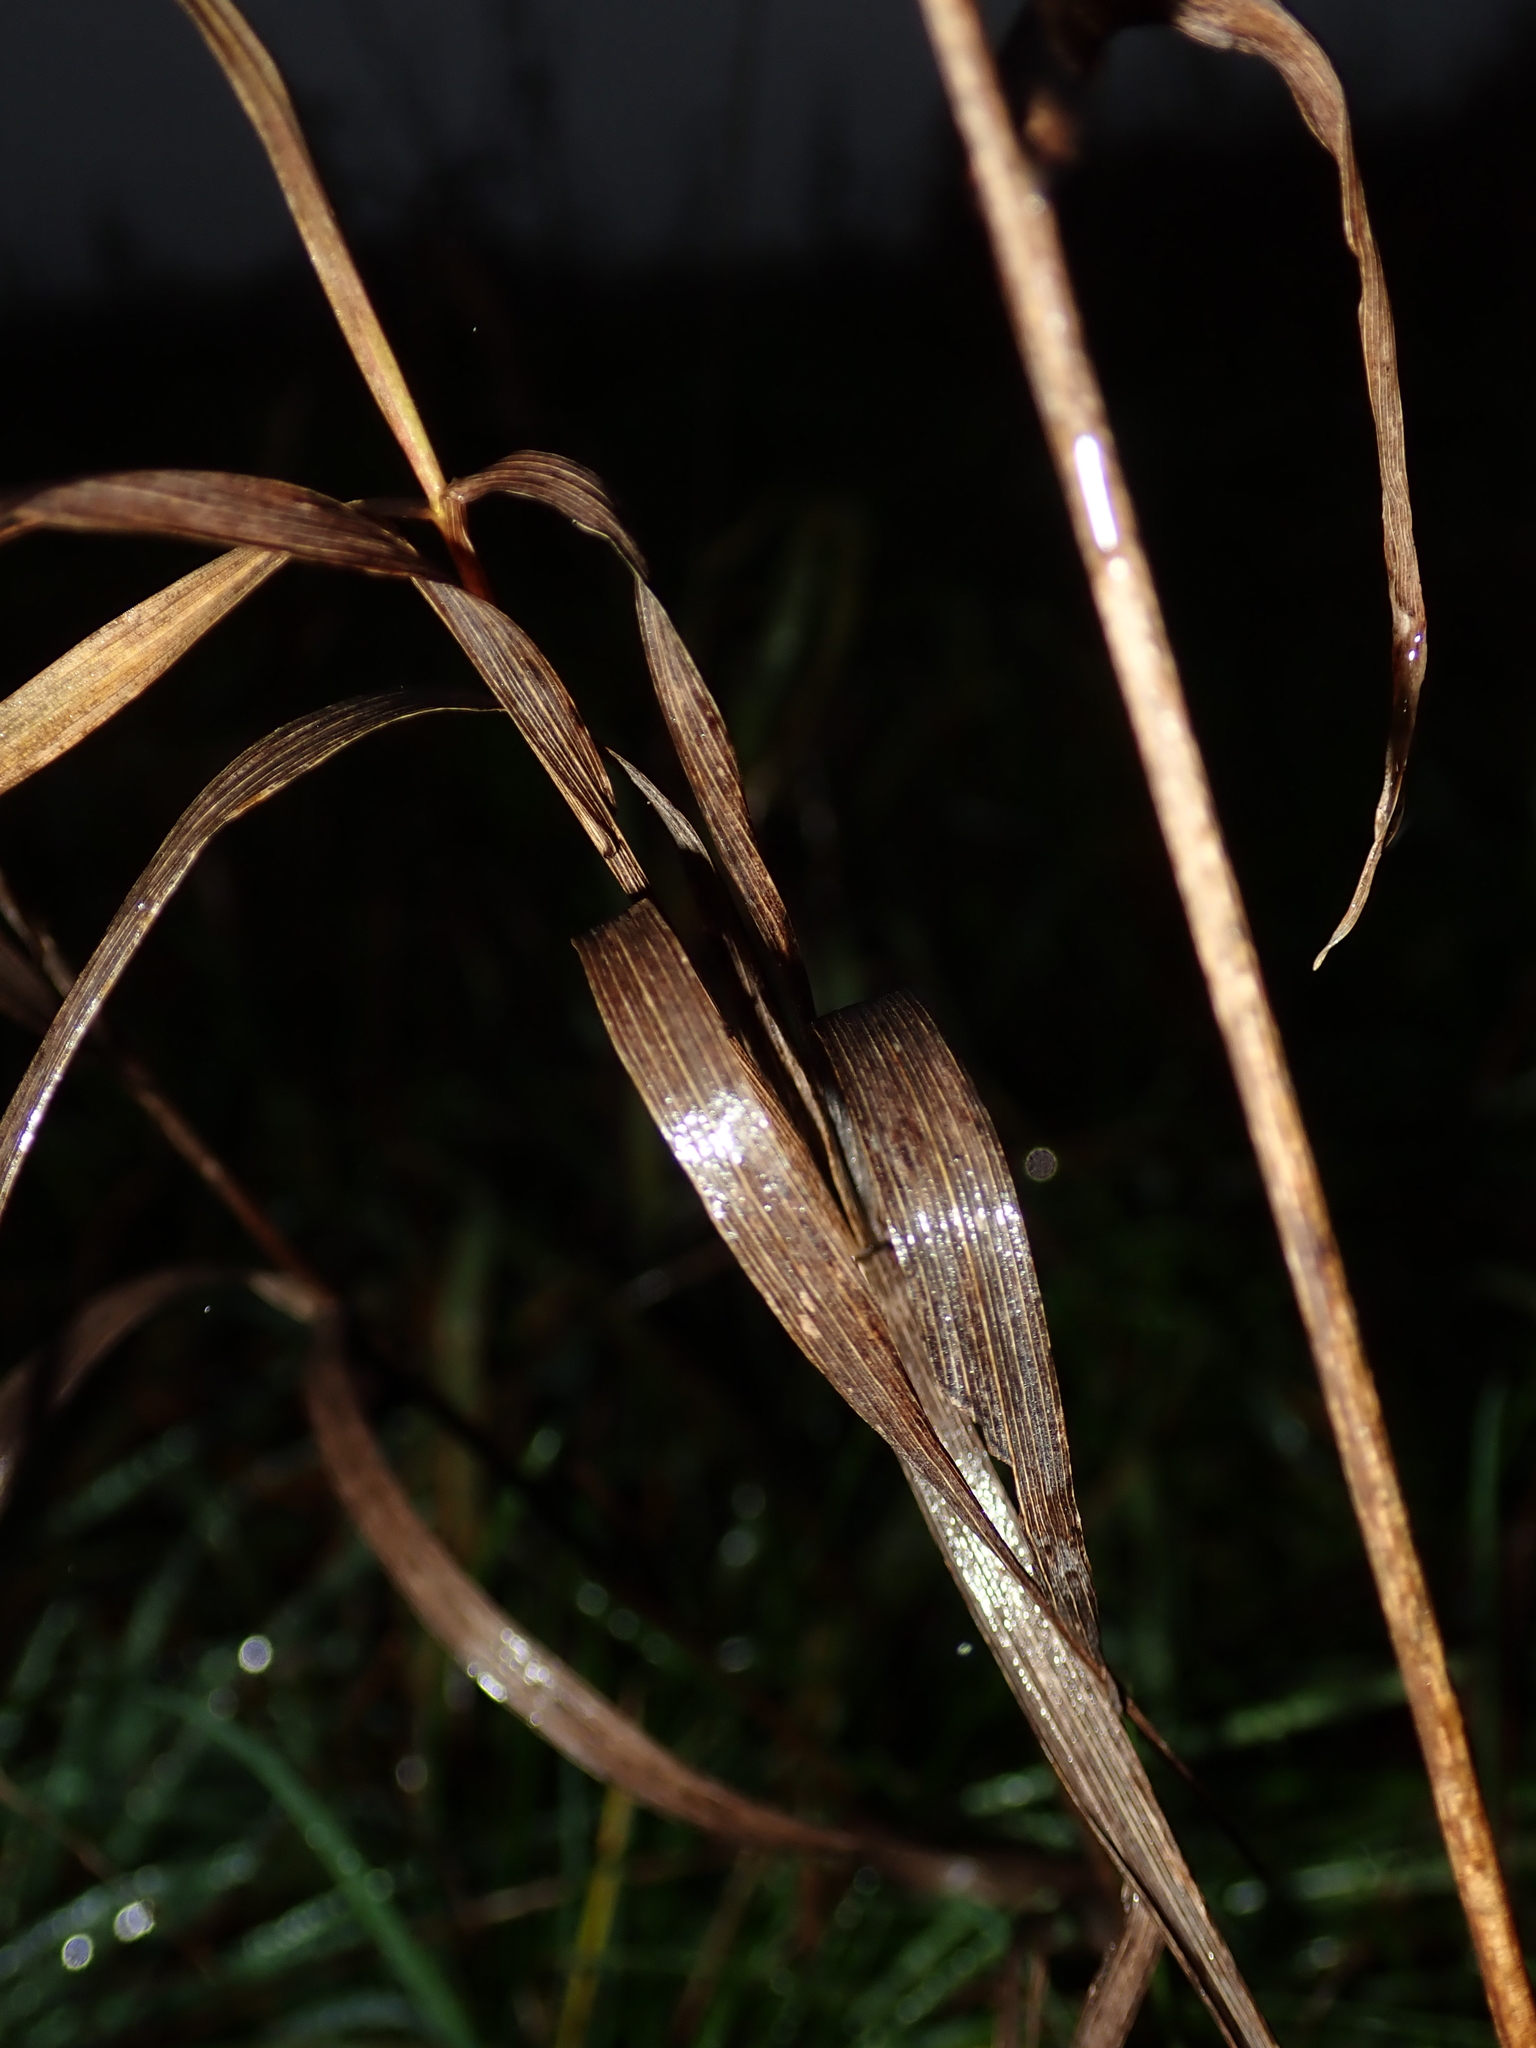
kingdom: Plantae
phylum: Tracheophyta
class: Liliopsida
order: Poales
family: Poaceae
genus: Bromus
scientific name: Bromus inermis
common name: Smooth brome
